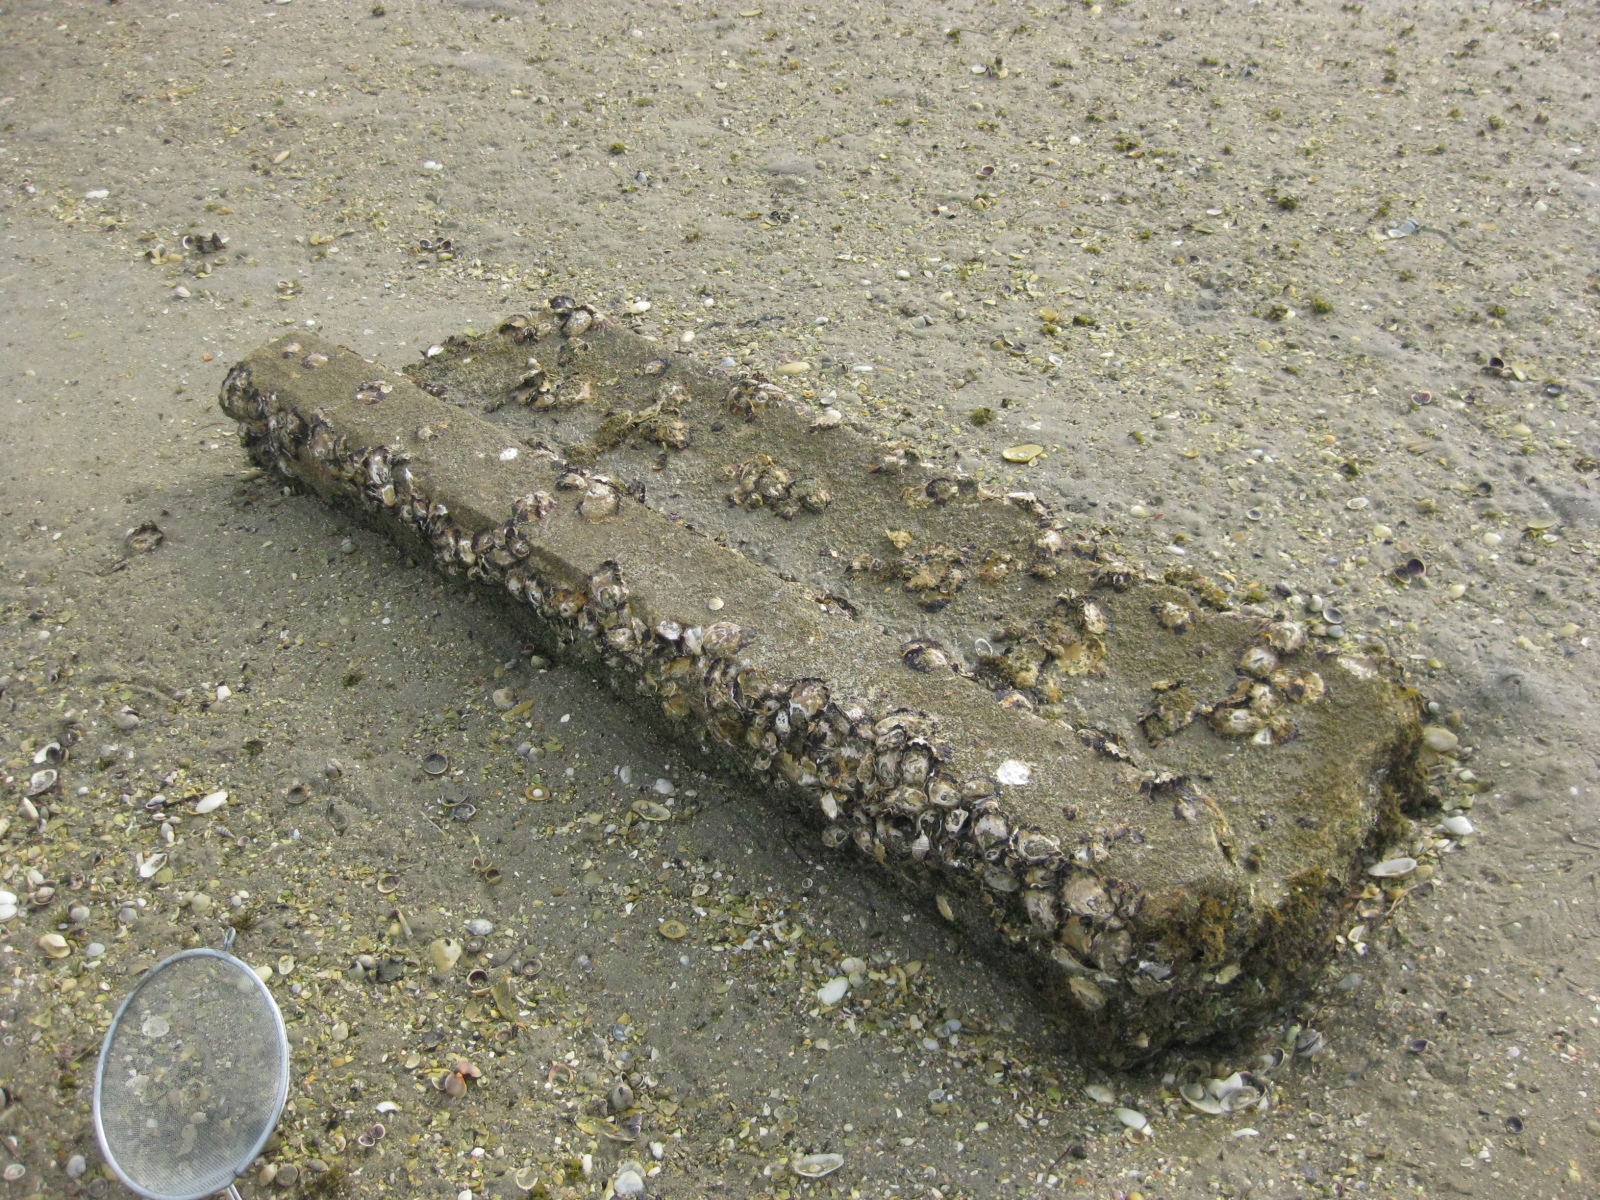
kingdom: Animalia
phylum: Mollusca
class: Bivalvia
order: Ostreida
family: Ostreidae
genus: Saccostrea
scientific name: Saccostrea glomerata
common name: Sydney cupped oyster
